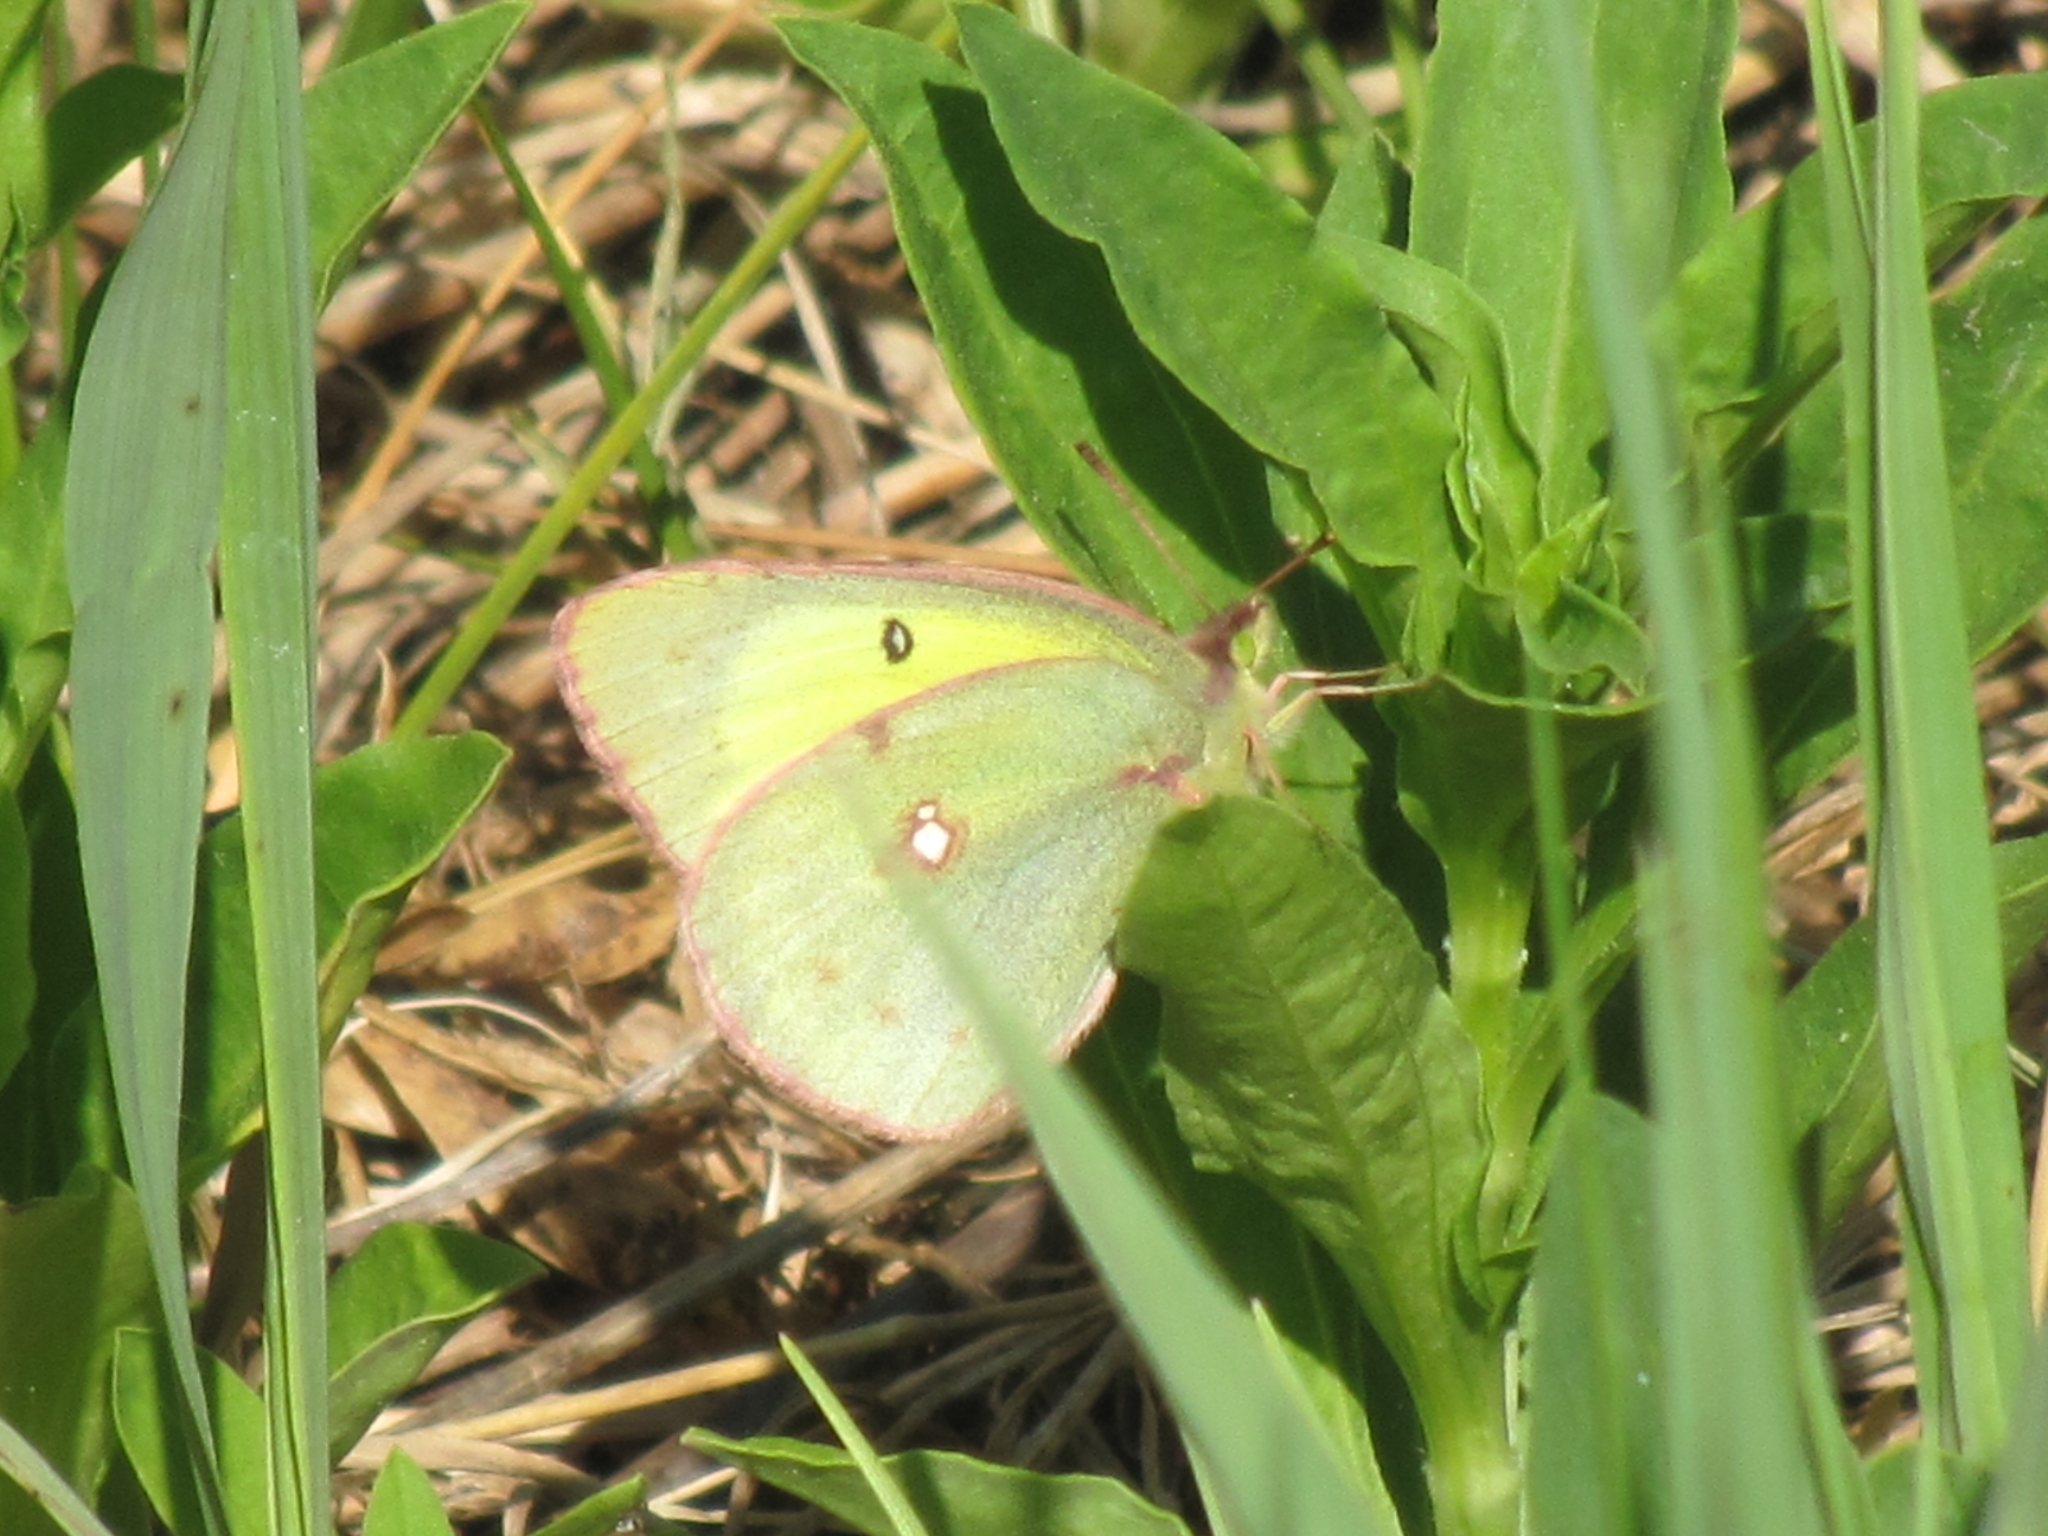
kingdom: Animalia
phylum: Arthropoda
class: Insecta
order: Lepidoptera
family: Pieridae
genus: Colias
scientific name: Colias philodice
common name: Clouded sulphur
